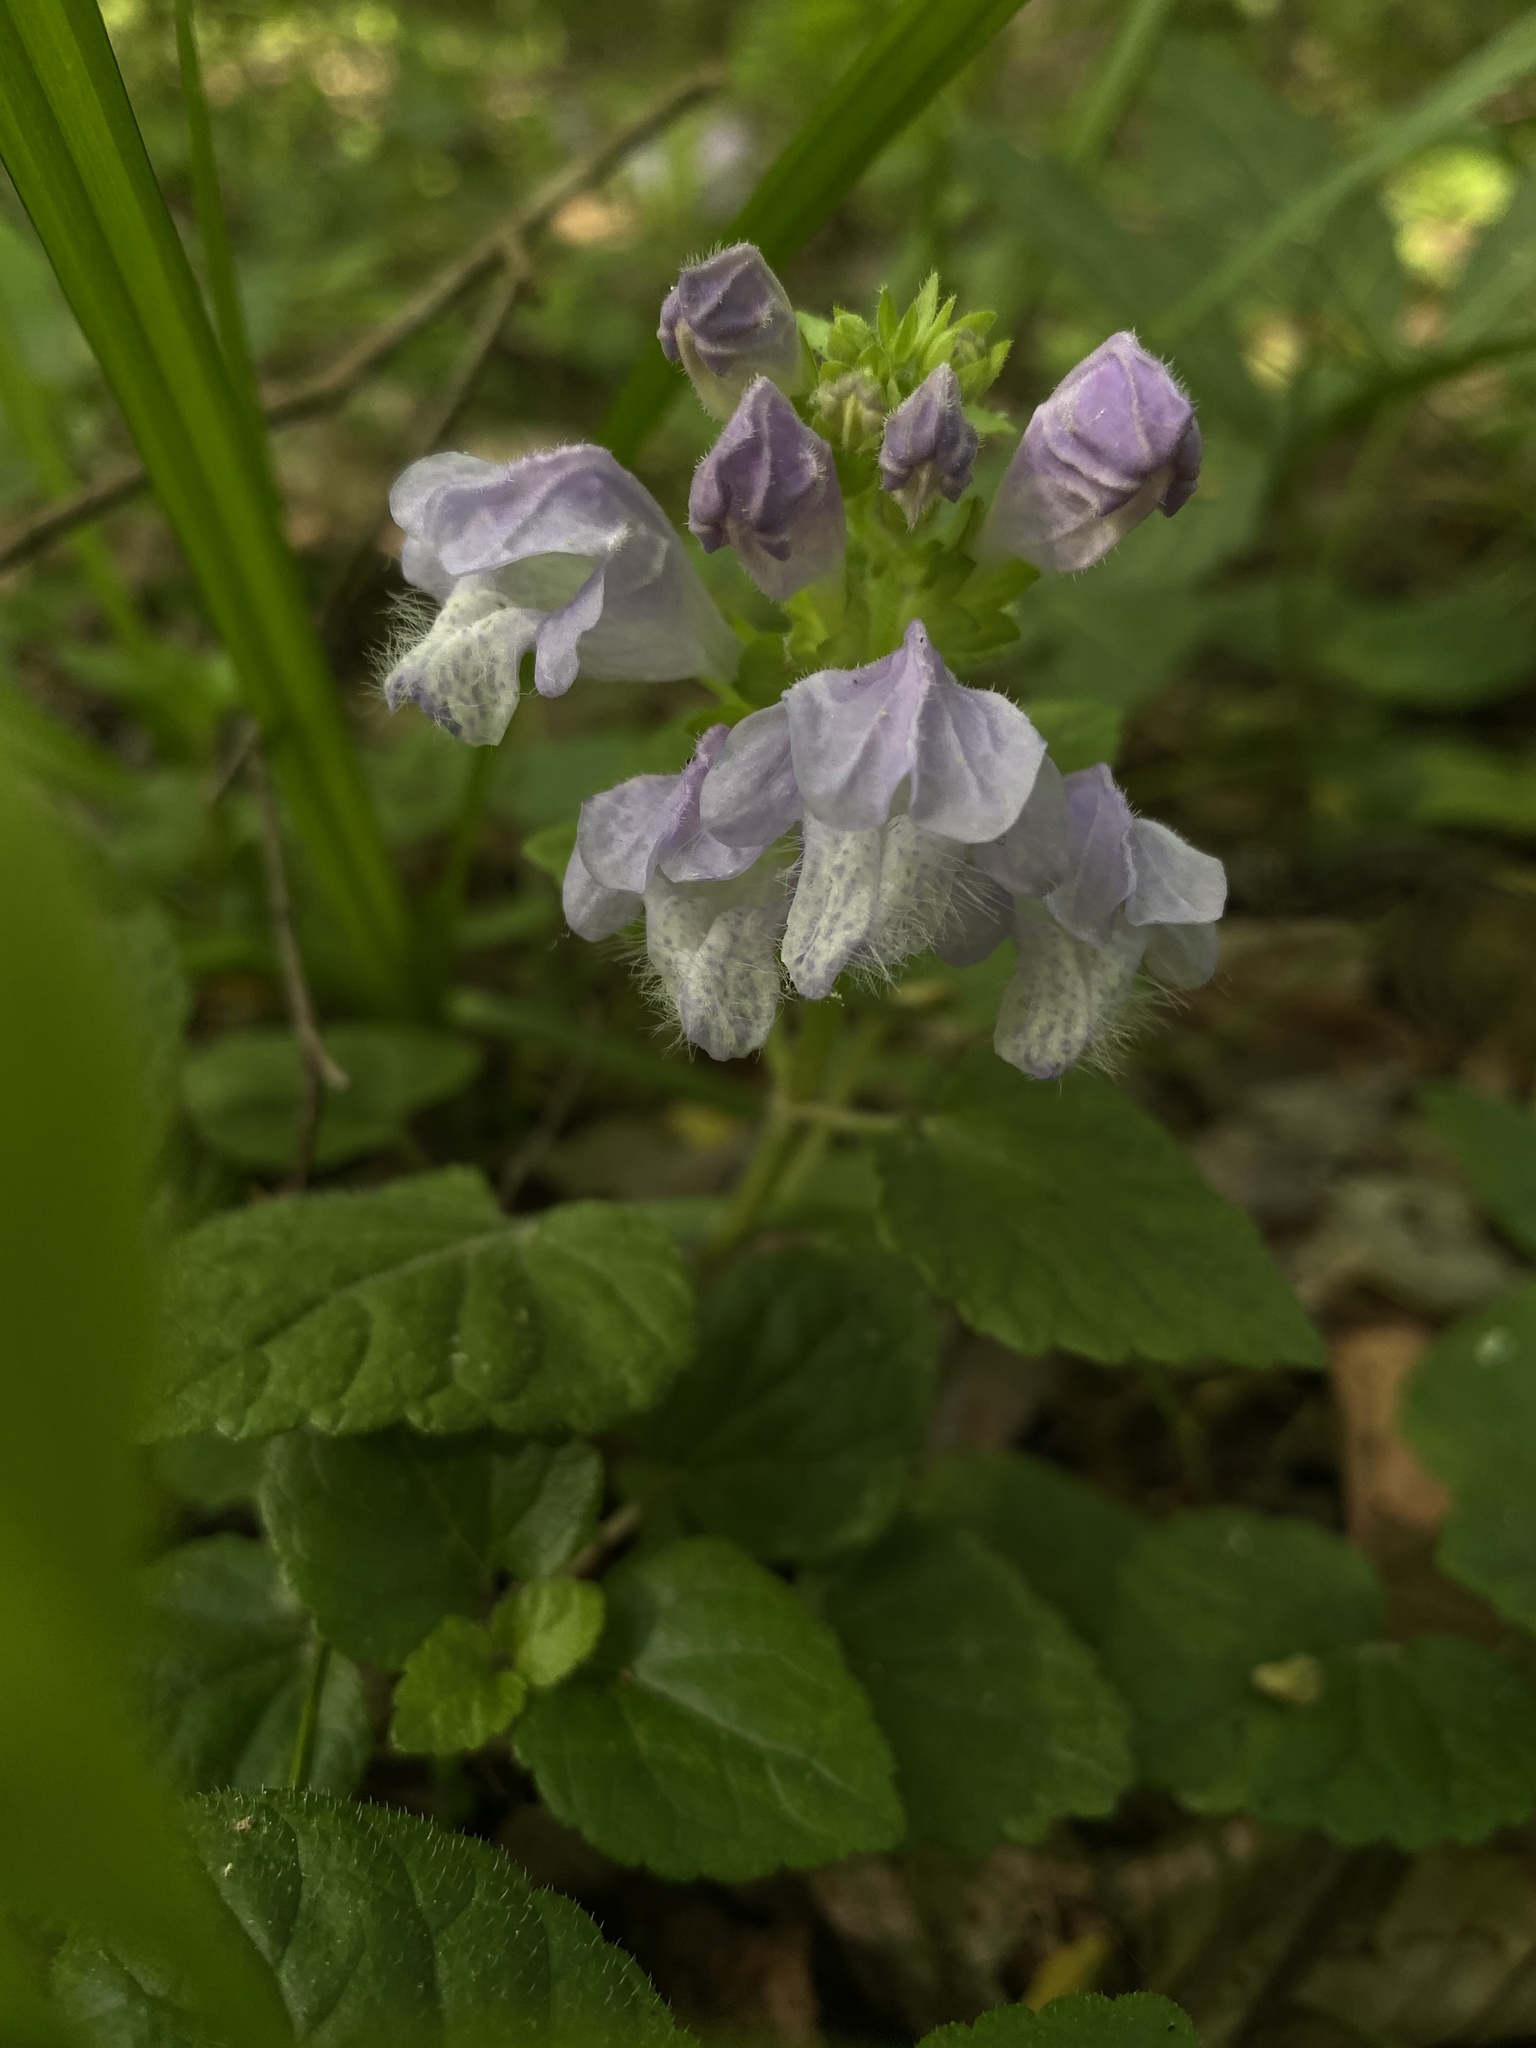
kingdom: Plantae
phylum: Tracheophyta
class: Magnoliopsida
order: Lamiales
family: Lamiaceae
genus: Meehania
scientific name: Meehania cordata
